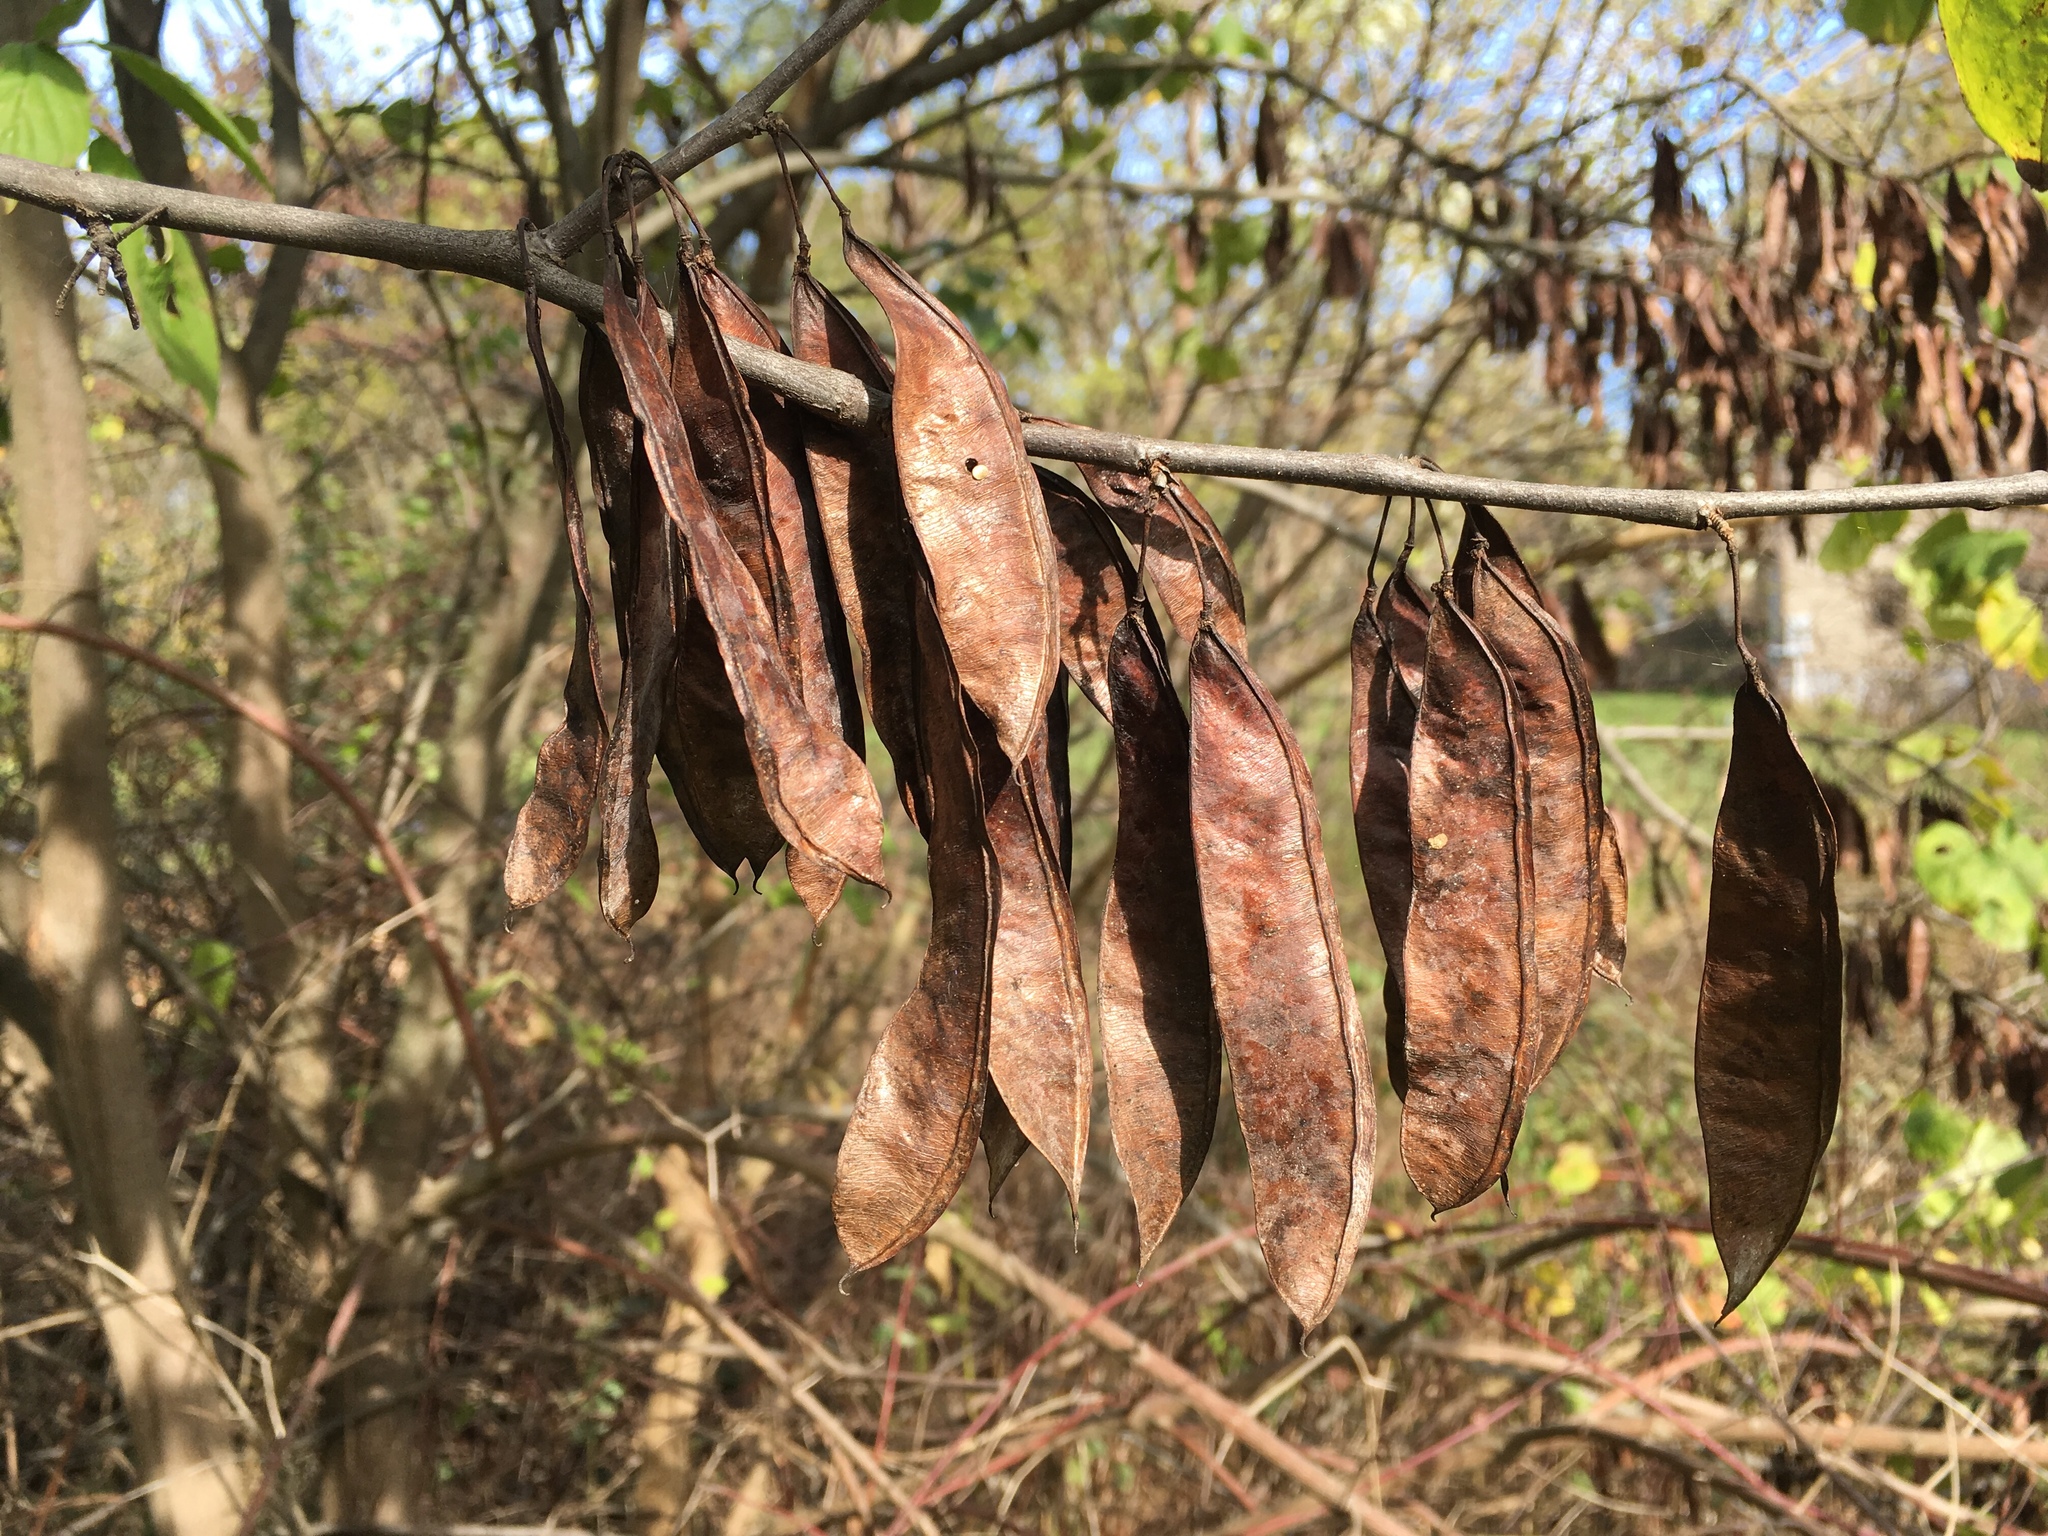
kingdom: Plantae
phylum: Tracheophyta
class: Magnoliopsida
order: Fabales
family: Fabaceae
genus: Cercis
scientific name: Cercis canadensis
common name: Eastern redbud
